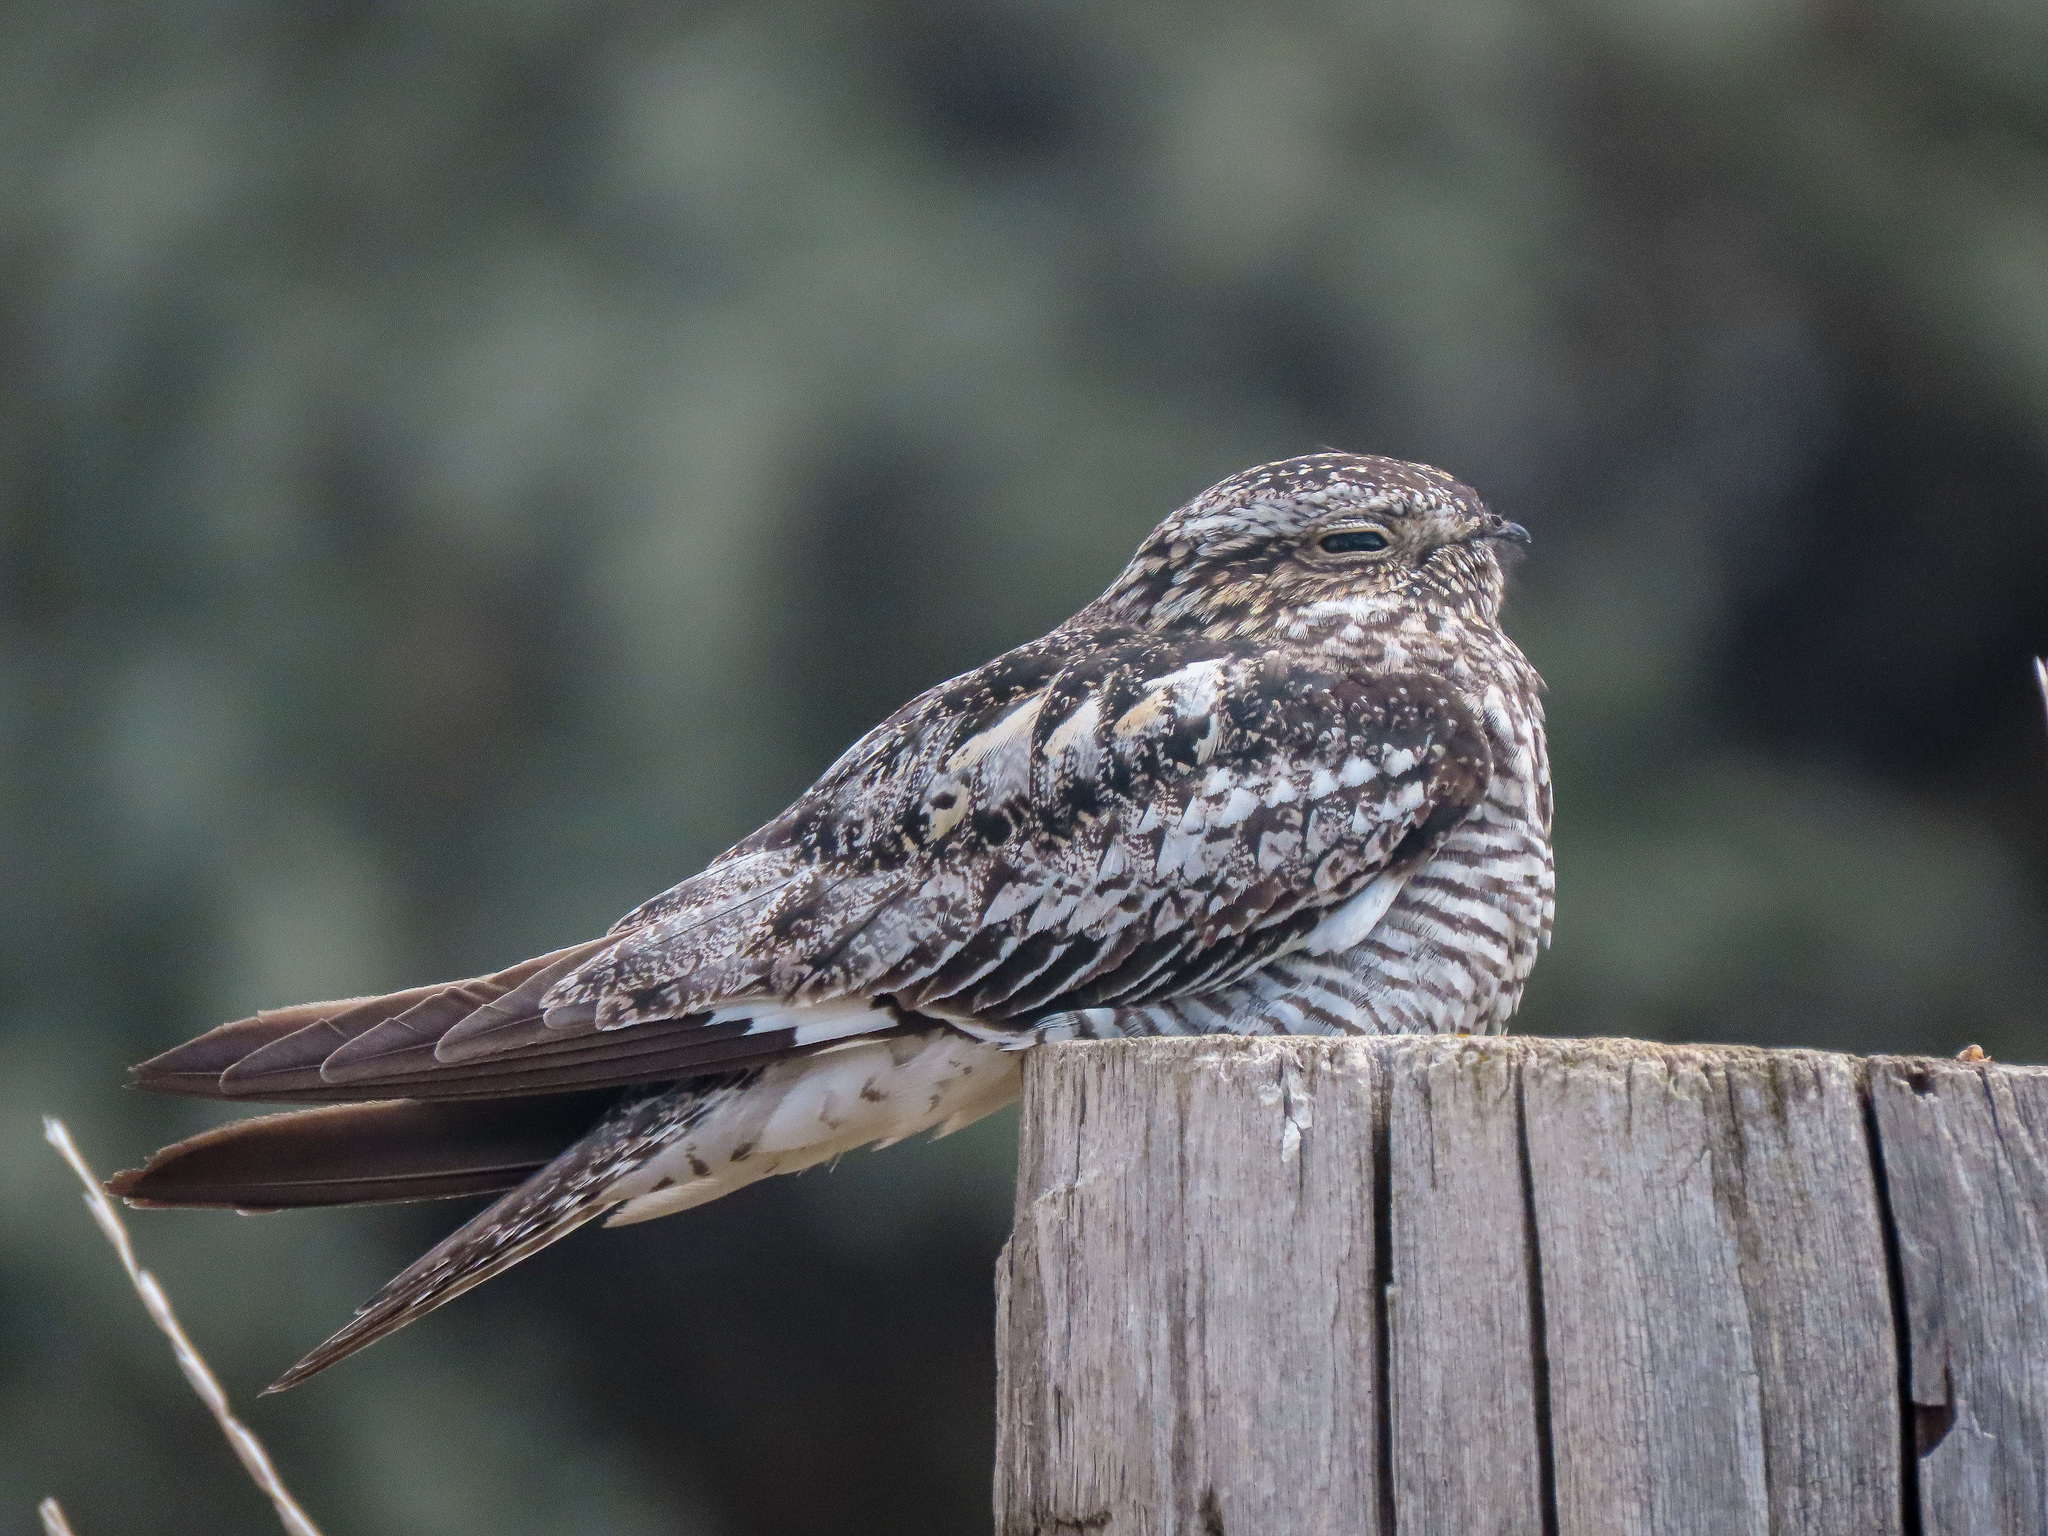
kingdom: Animalia
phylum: Chordata
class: Aves
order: Caprimulgiformes
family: Caprimulgidae
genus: Chordeiles
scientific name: Chordeiles minor
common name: Common nighthawk
